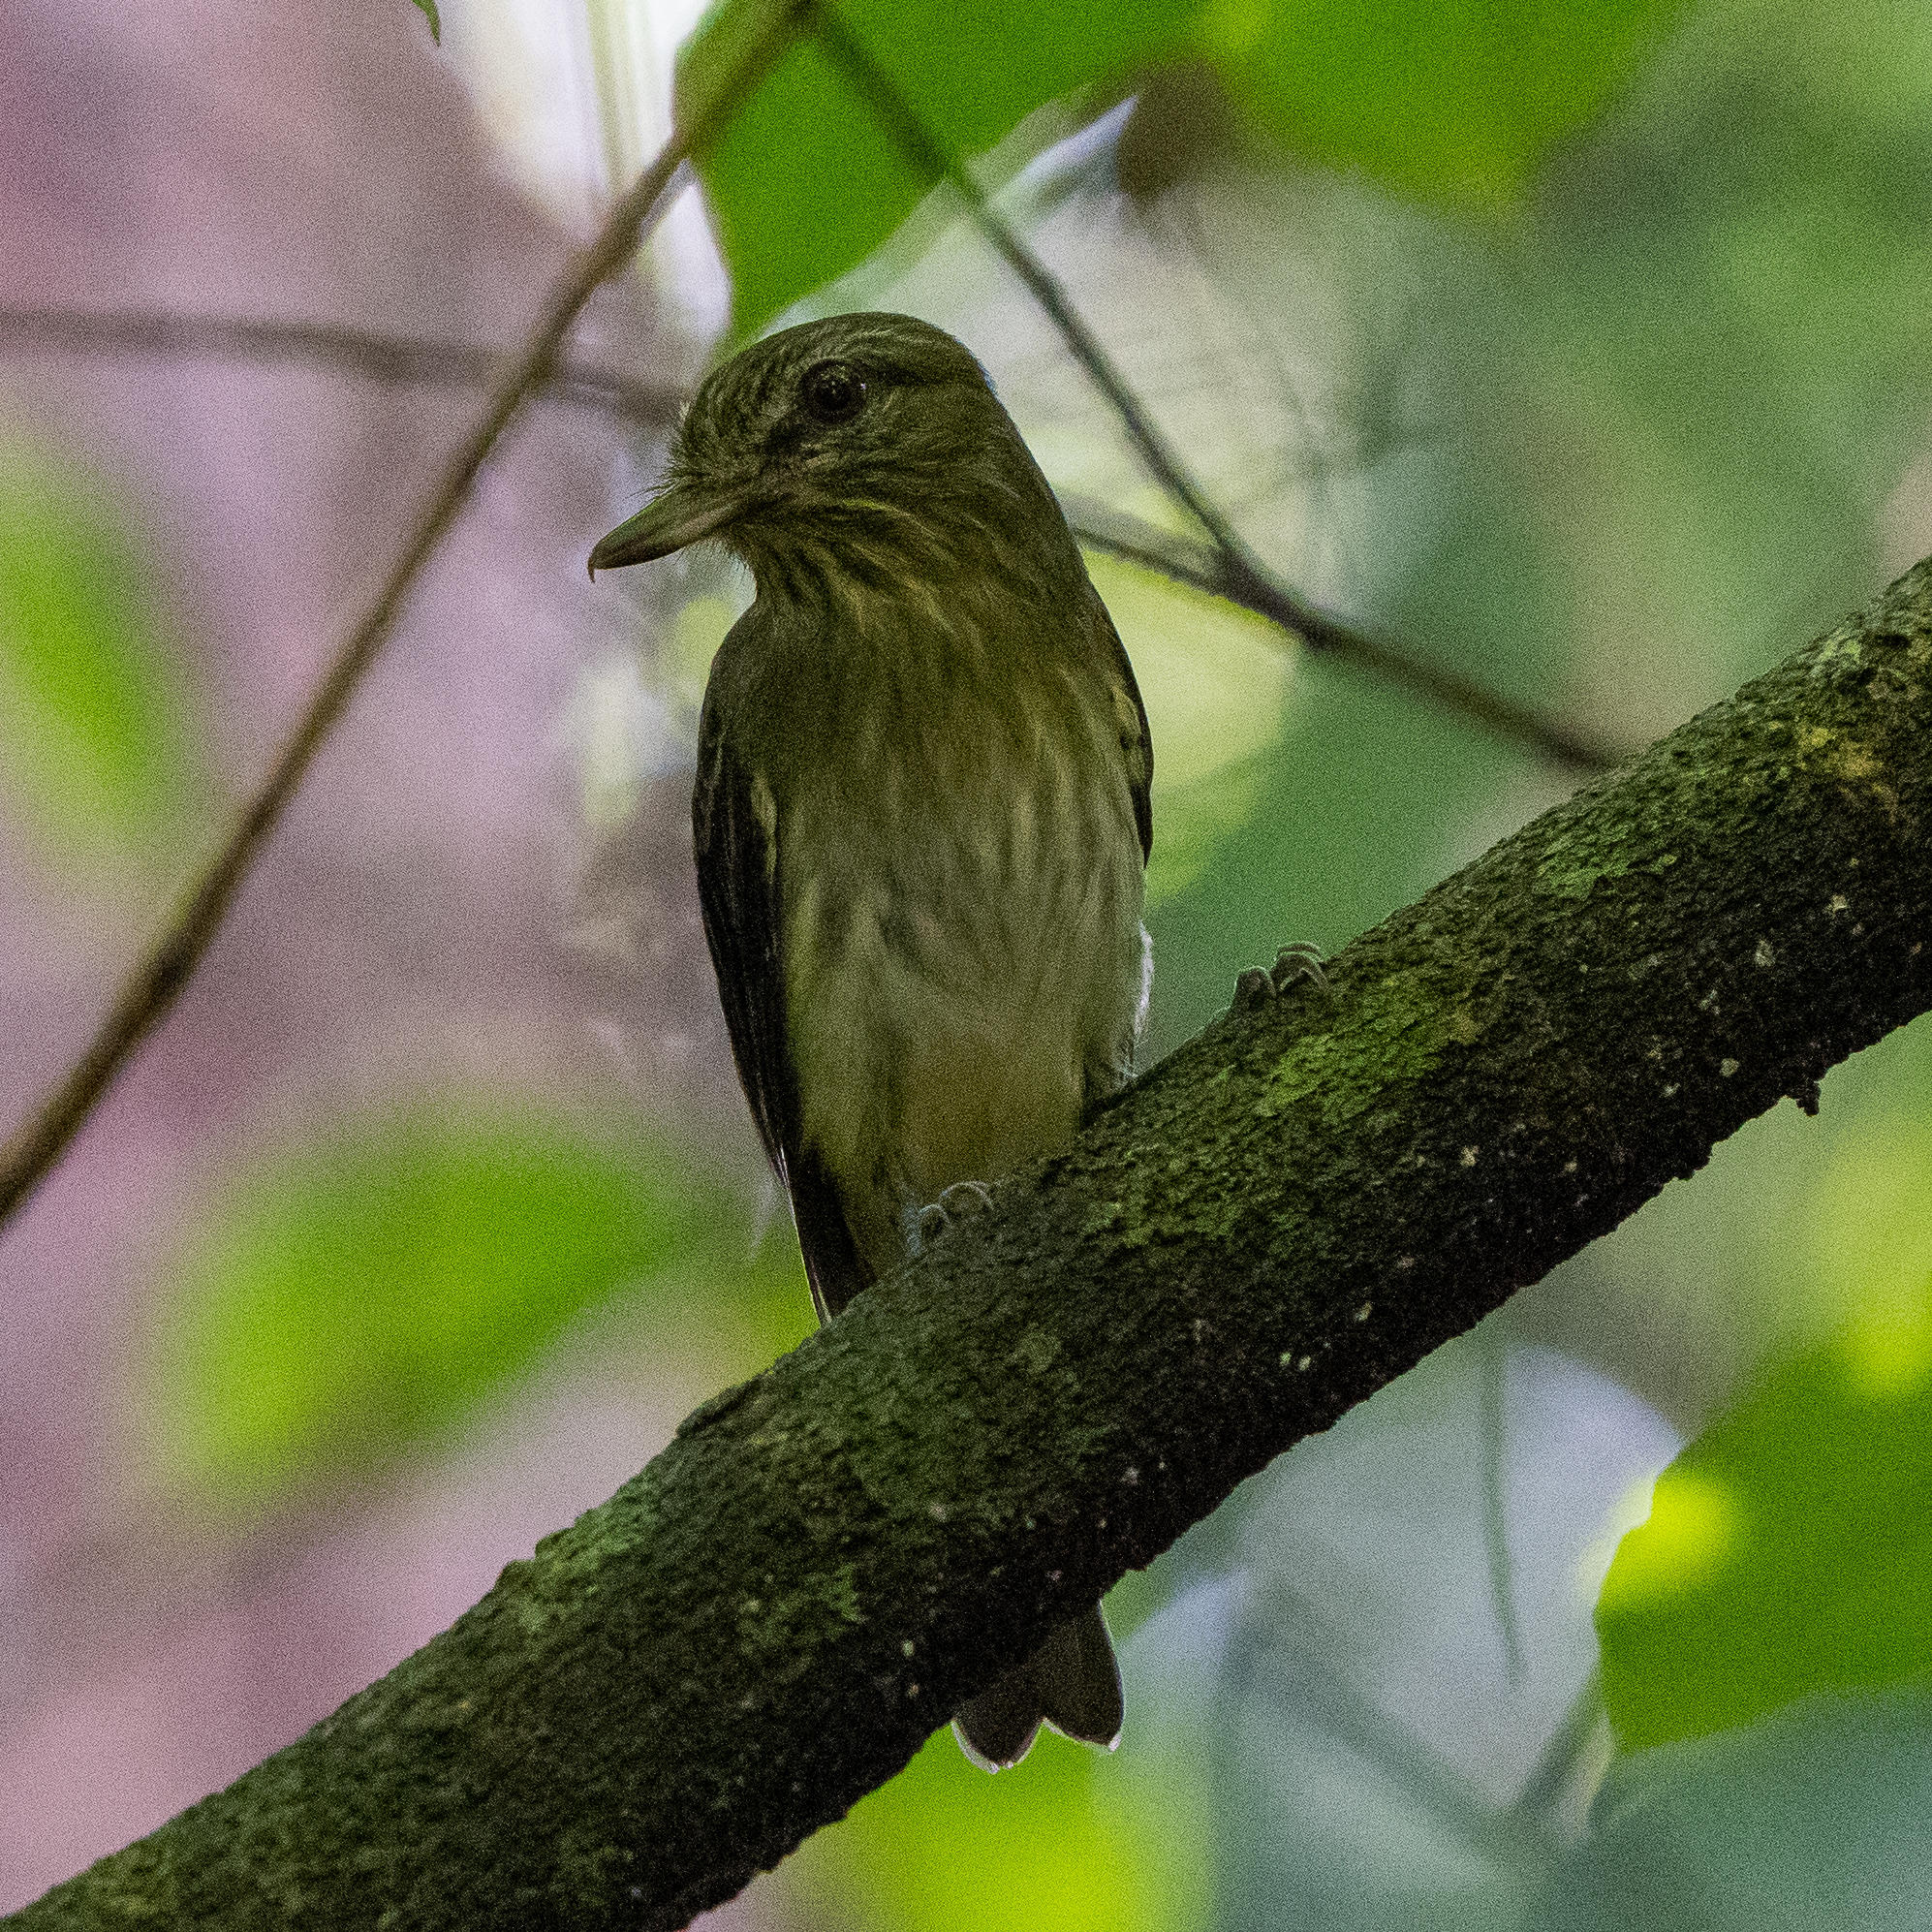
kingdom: Animalia
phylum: Chordata
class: Aves
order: Passeriformes
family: Tyrannidae
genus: Attila
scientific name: Attila spadiceus
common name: Bright-rumped attila
